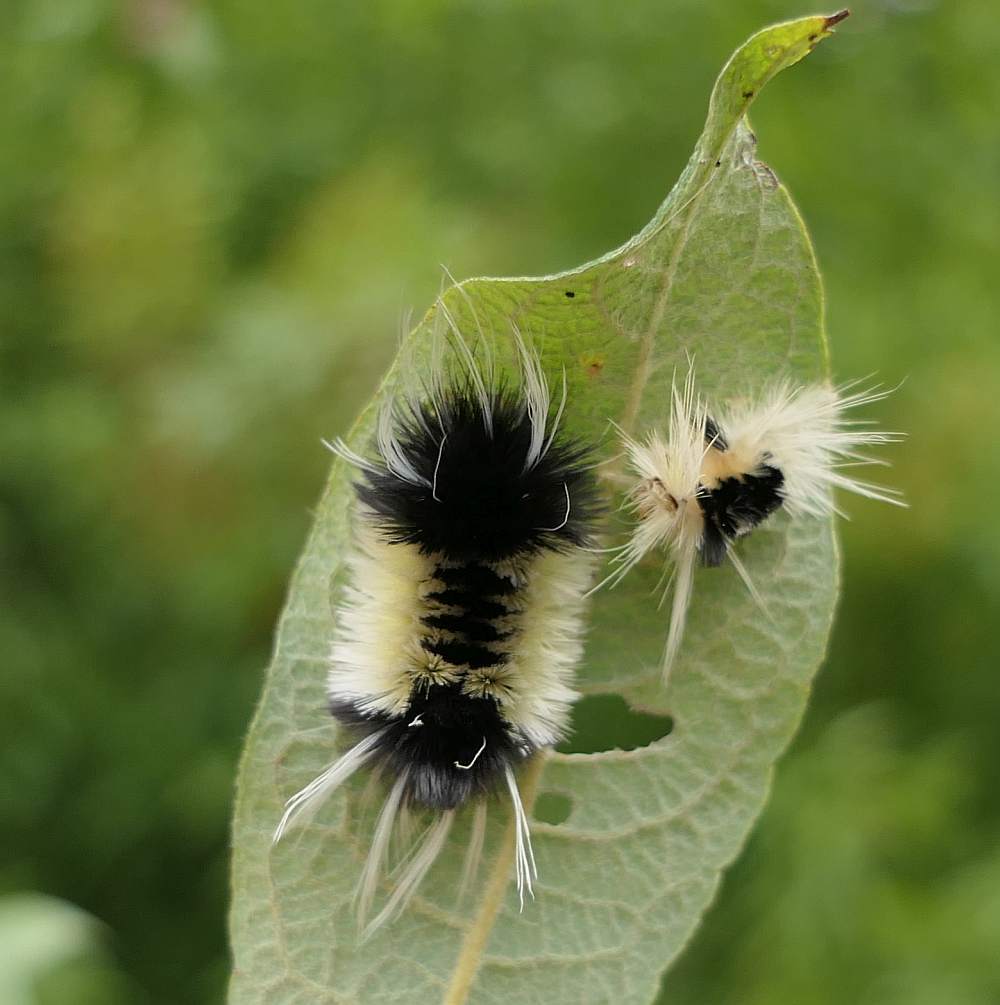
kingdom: Animalia
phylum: Arthropoda
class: Insecta
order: Lepidoptera
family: Erebidae
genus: Lophocampa
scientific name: Lophocampa maculata
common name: Spotted tussock moth
